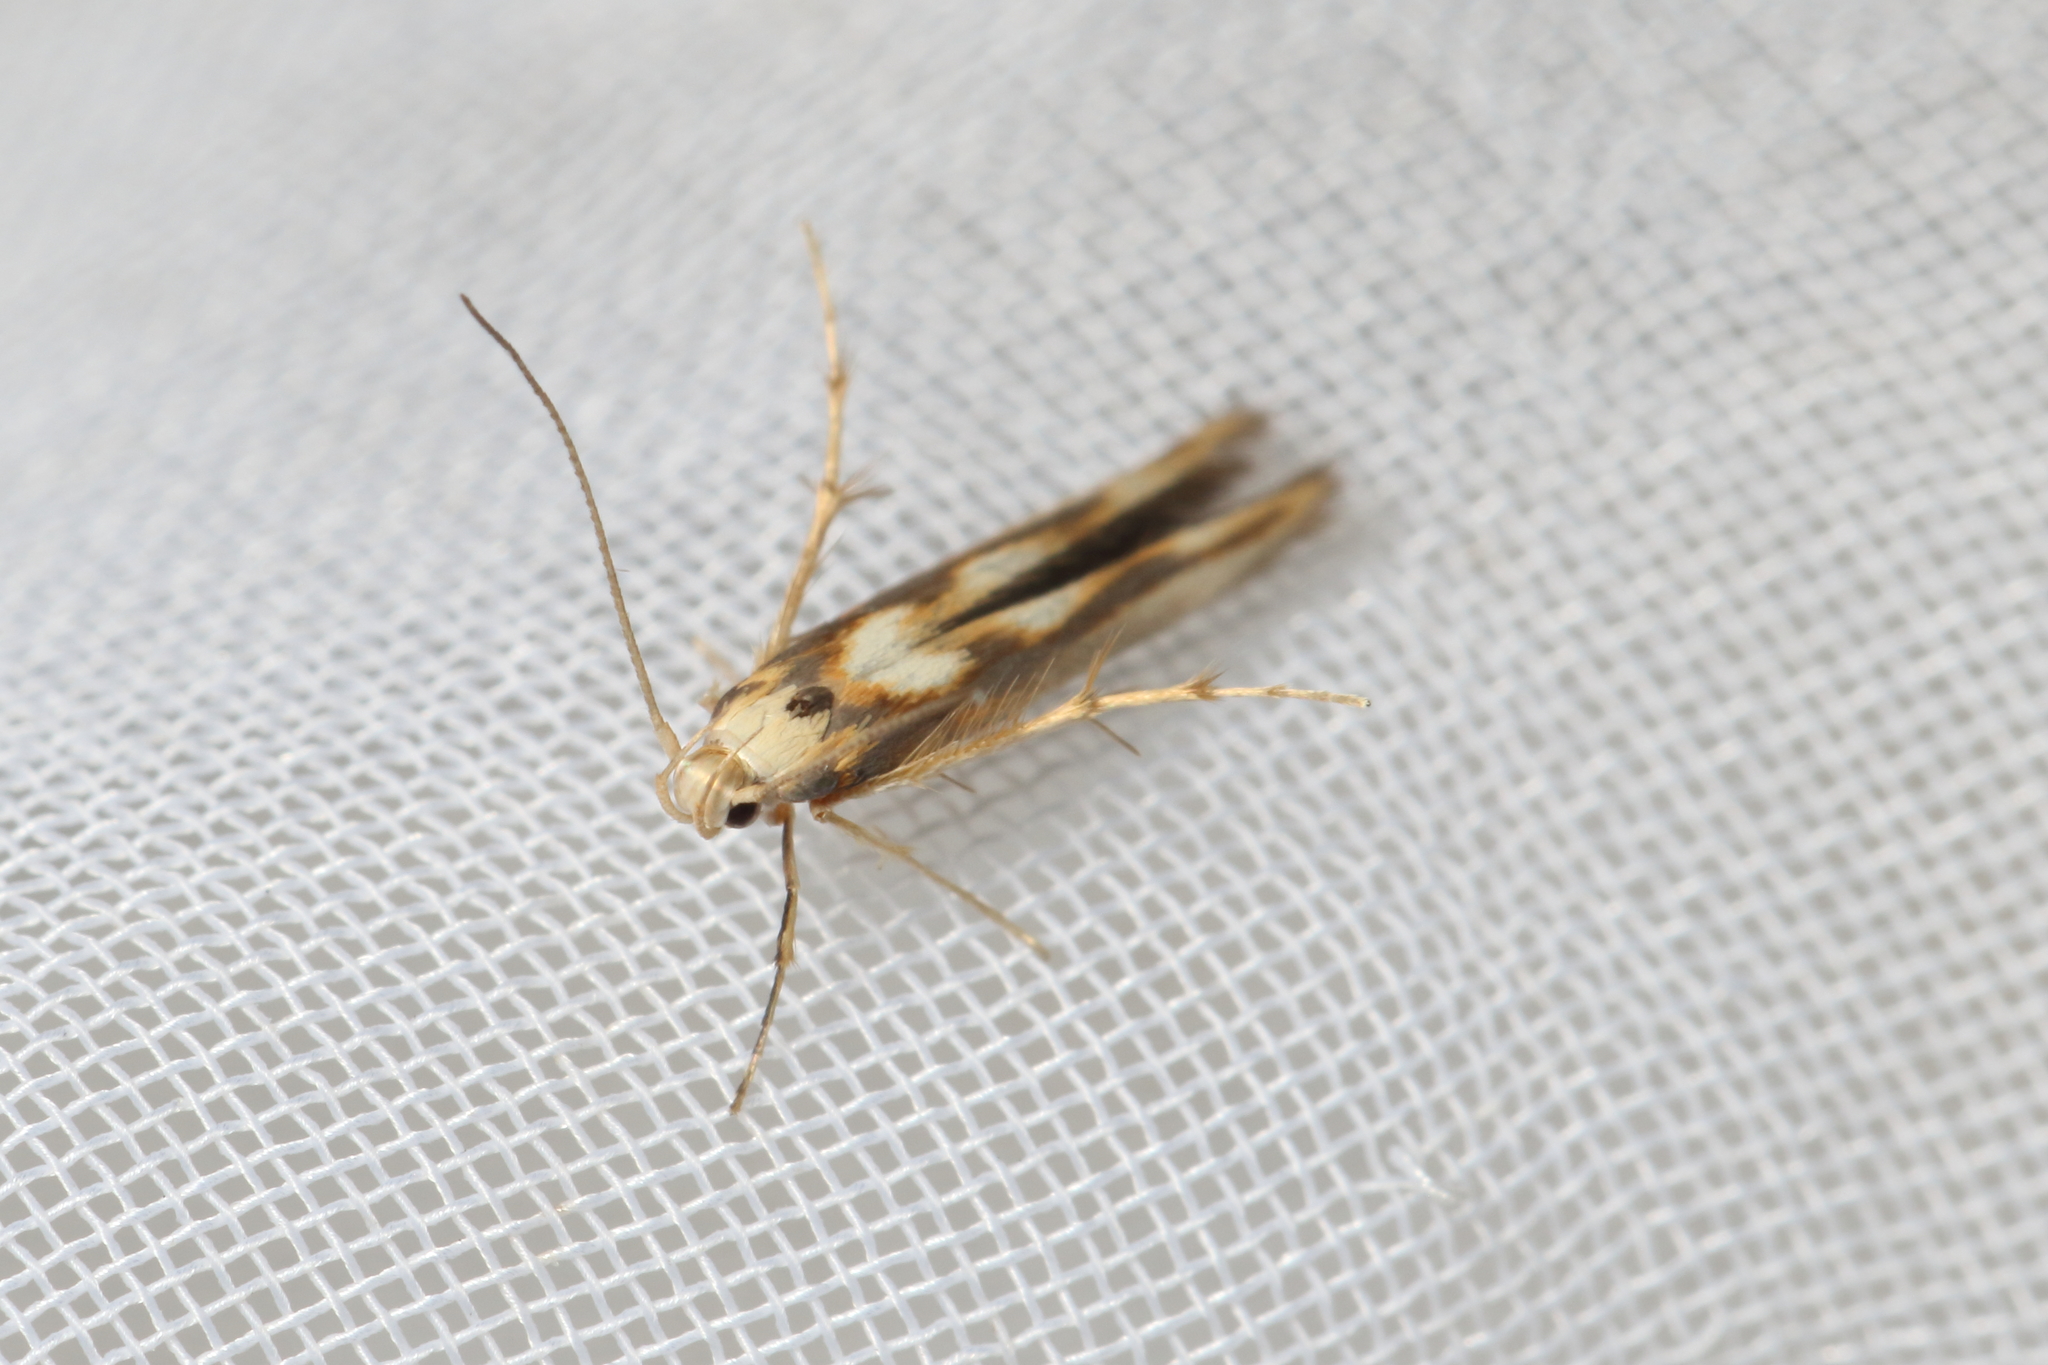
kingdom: Animalia
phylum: Arthropoda
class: Insecta
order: Lepidoptera
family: Stathmopodidae
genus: Stathmopoda
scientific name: Stathmopoda caminora
